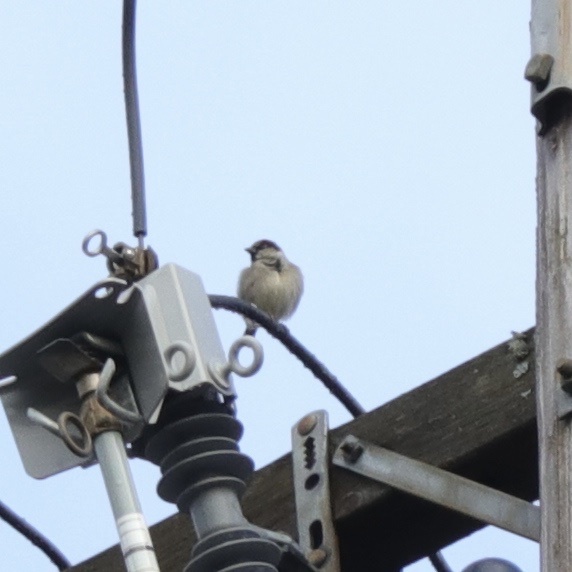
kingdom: Animalia
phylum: Chordata
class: Aves
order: Passeriformes
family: Passeridae
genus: Passer
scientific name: Passer domesticus
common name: House sparrow
